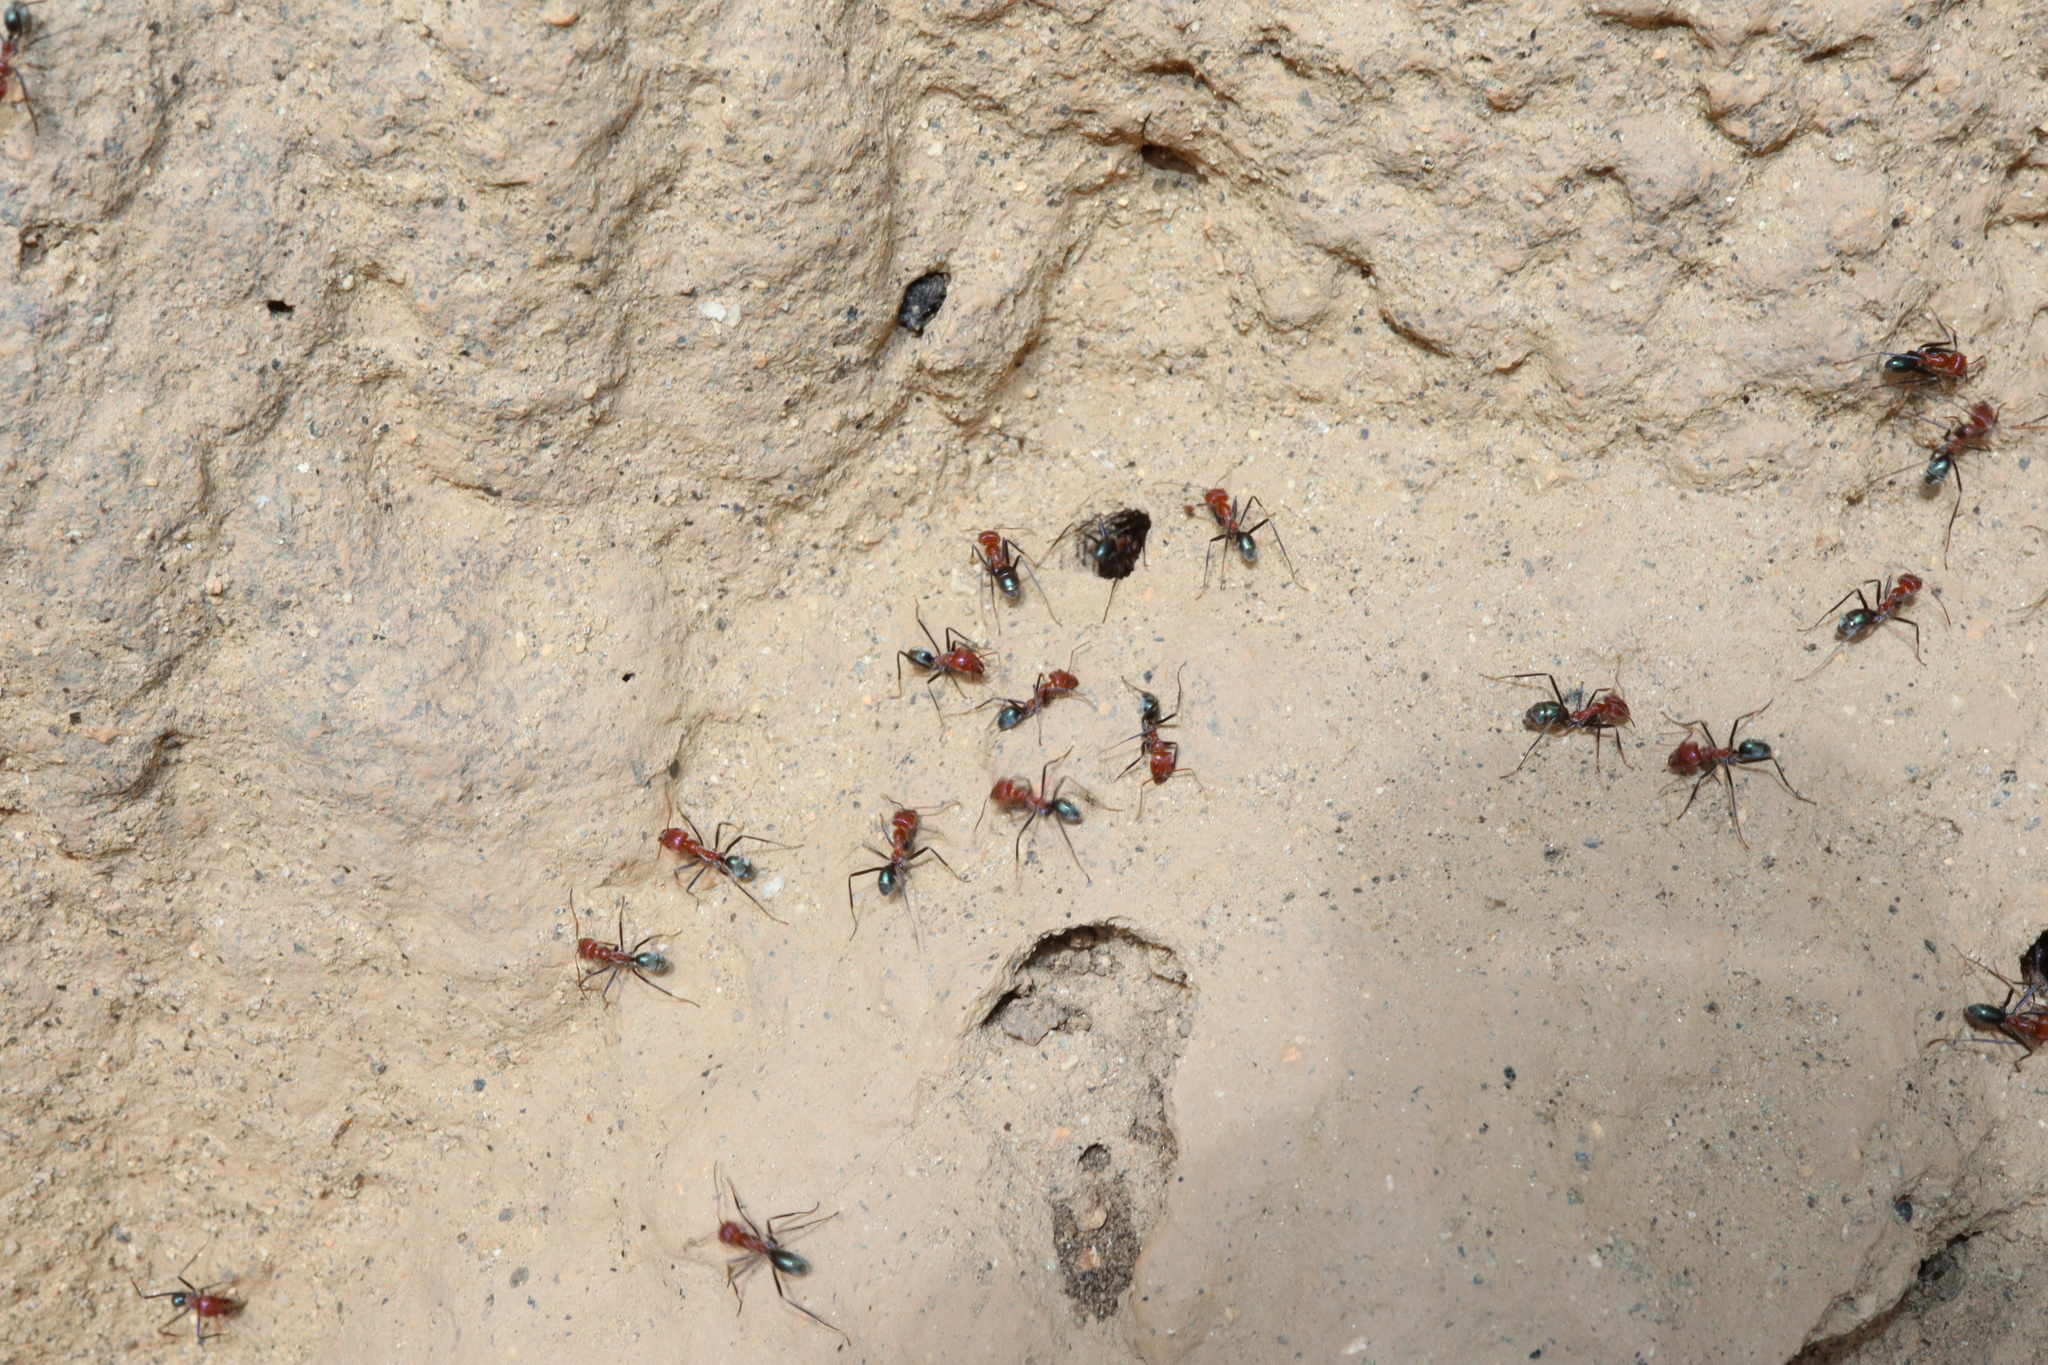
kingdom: Animalia
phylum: Arthropoda
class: Insecta
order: Hymenoptera
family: Formicidae
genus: Iridomyrmex
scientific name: Iridomyrmex sanguineus
